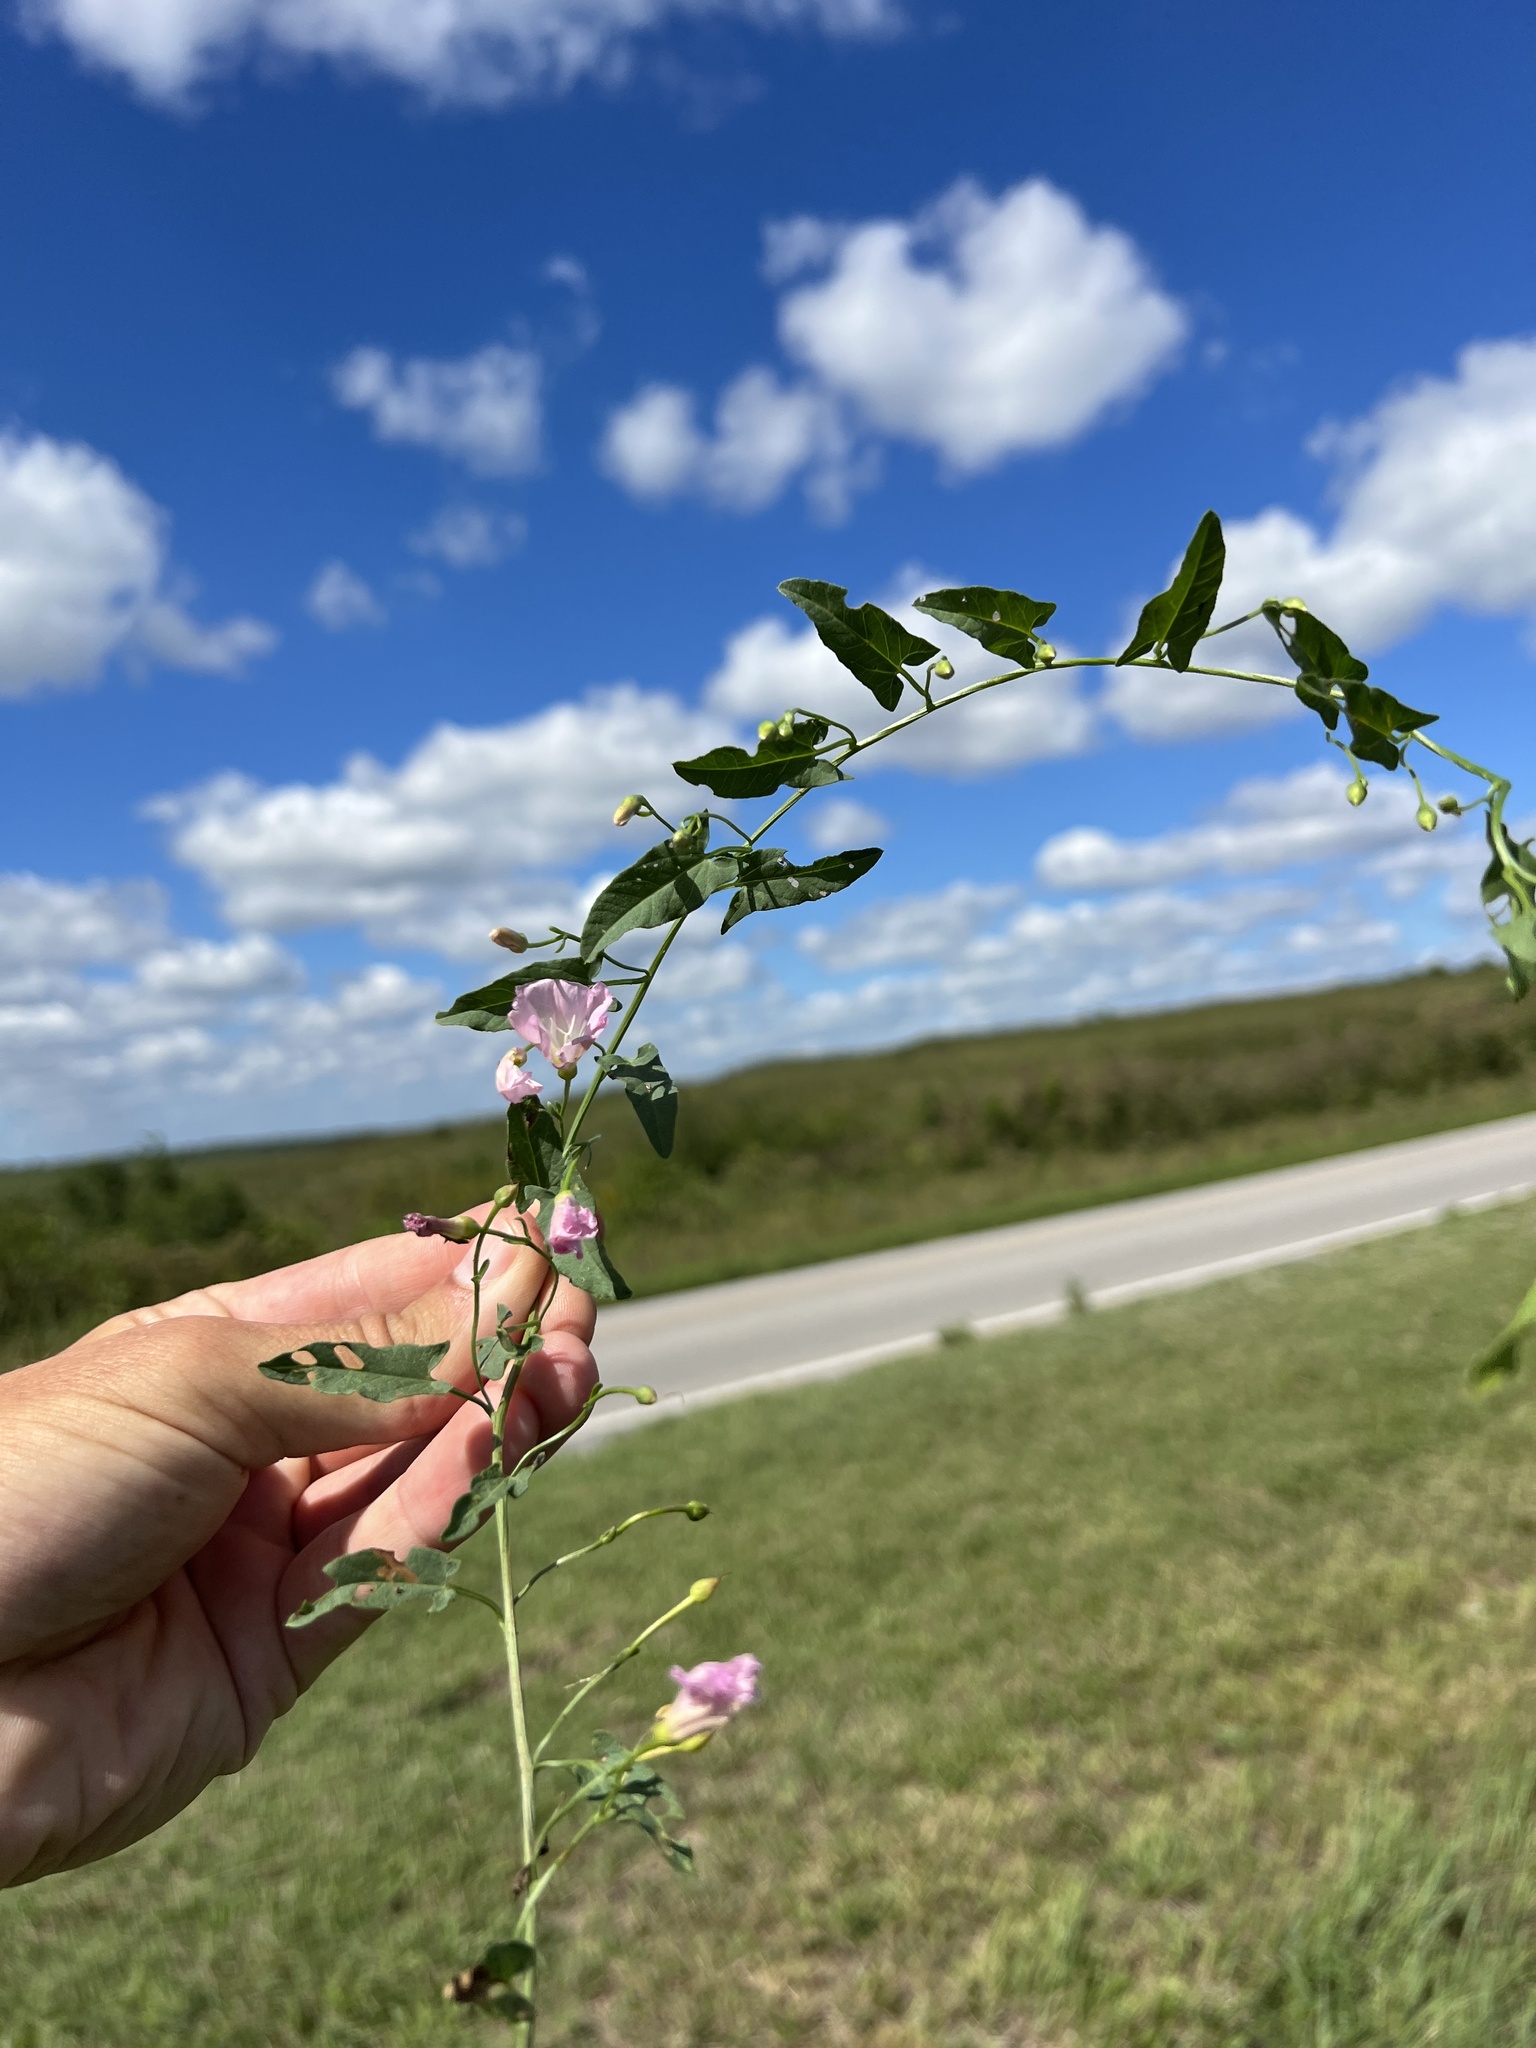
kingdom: Plantae
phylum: Tracheophyta
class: Magnoliopsida
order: Solanales
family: Convolvulaceae
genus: Convolvulus
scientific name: Convolvulus arvensis
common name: Field bindweed
